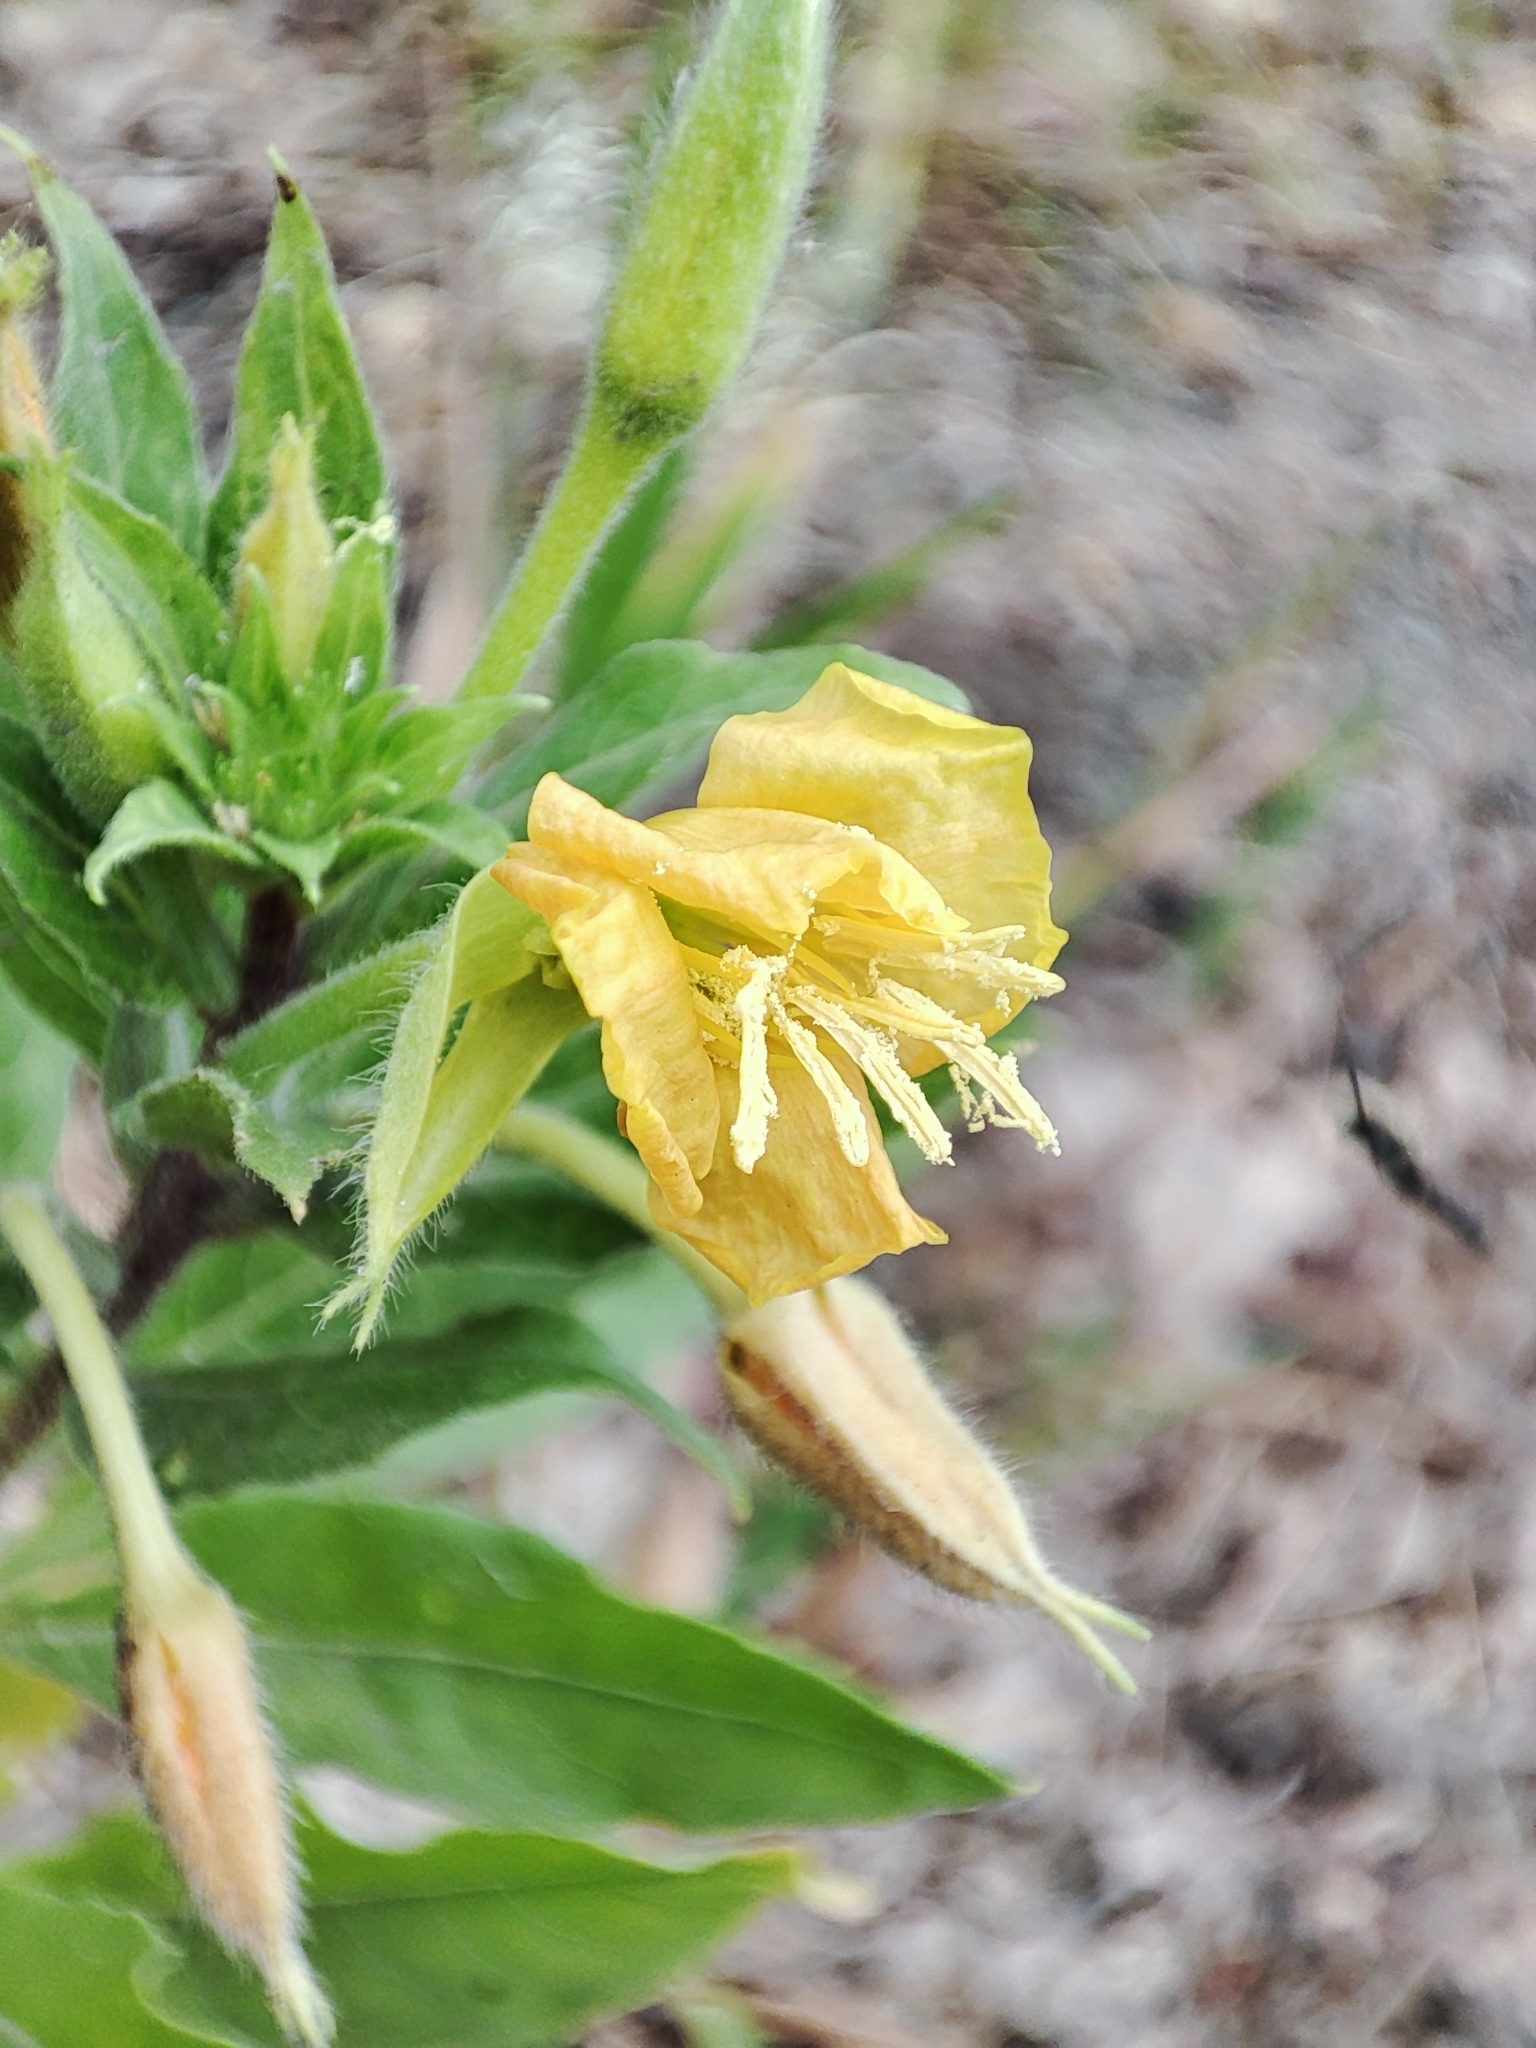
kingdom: Plantae
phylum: Tracheophyta
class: Magnoliopsida
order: Myrtales
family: Onagraceae
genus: Oenothera
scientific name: Oenothera rubricaulis
